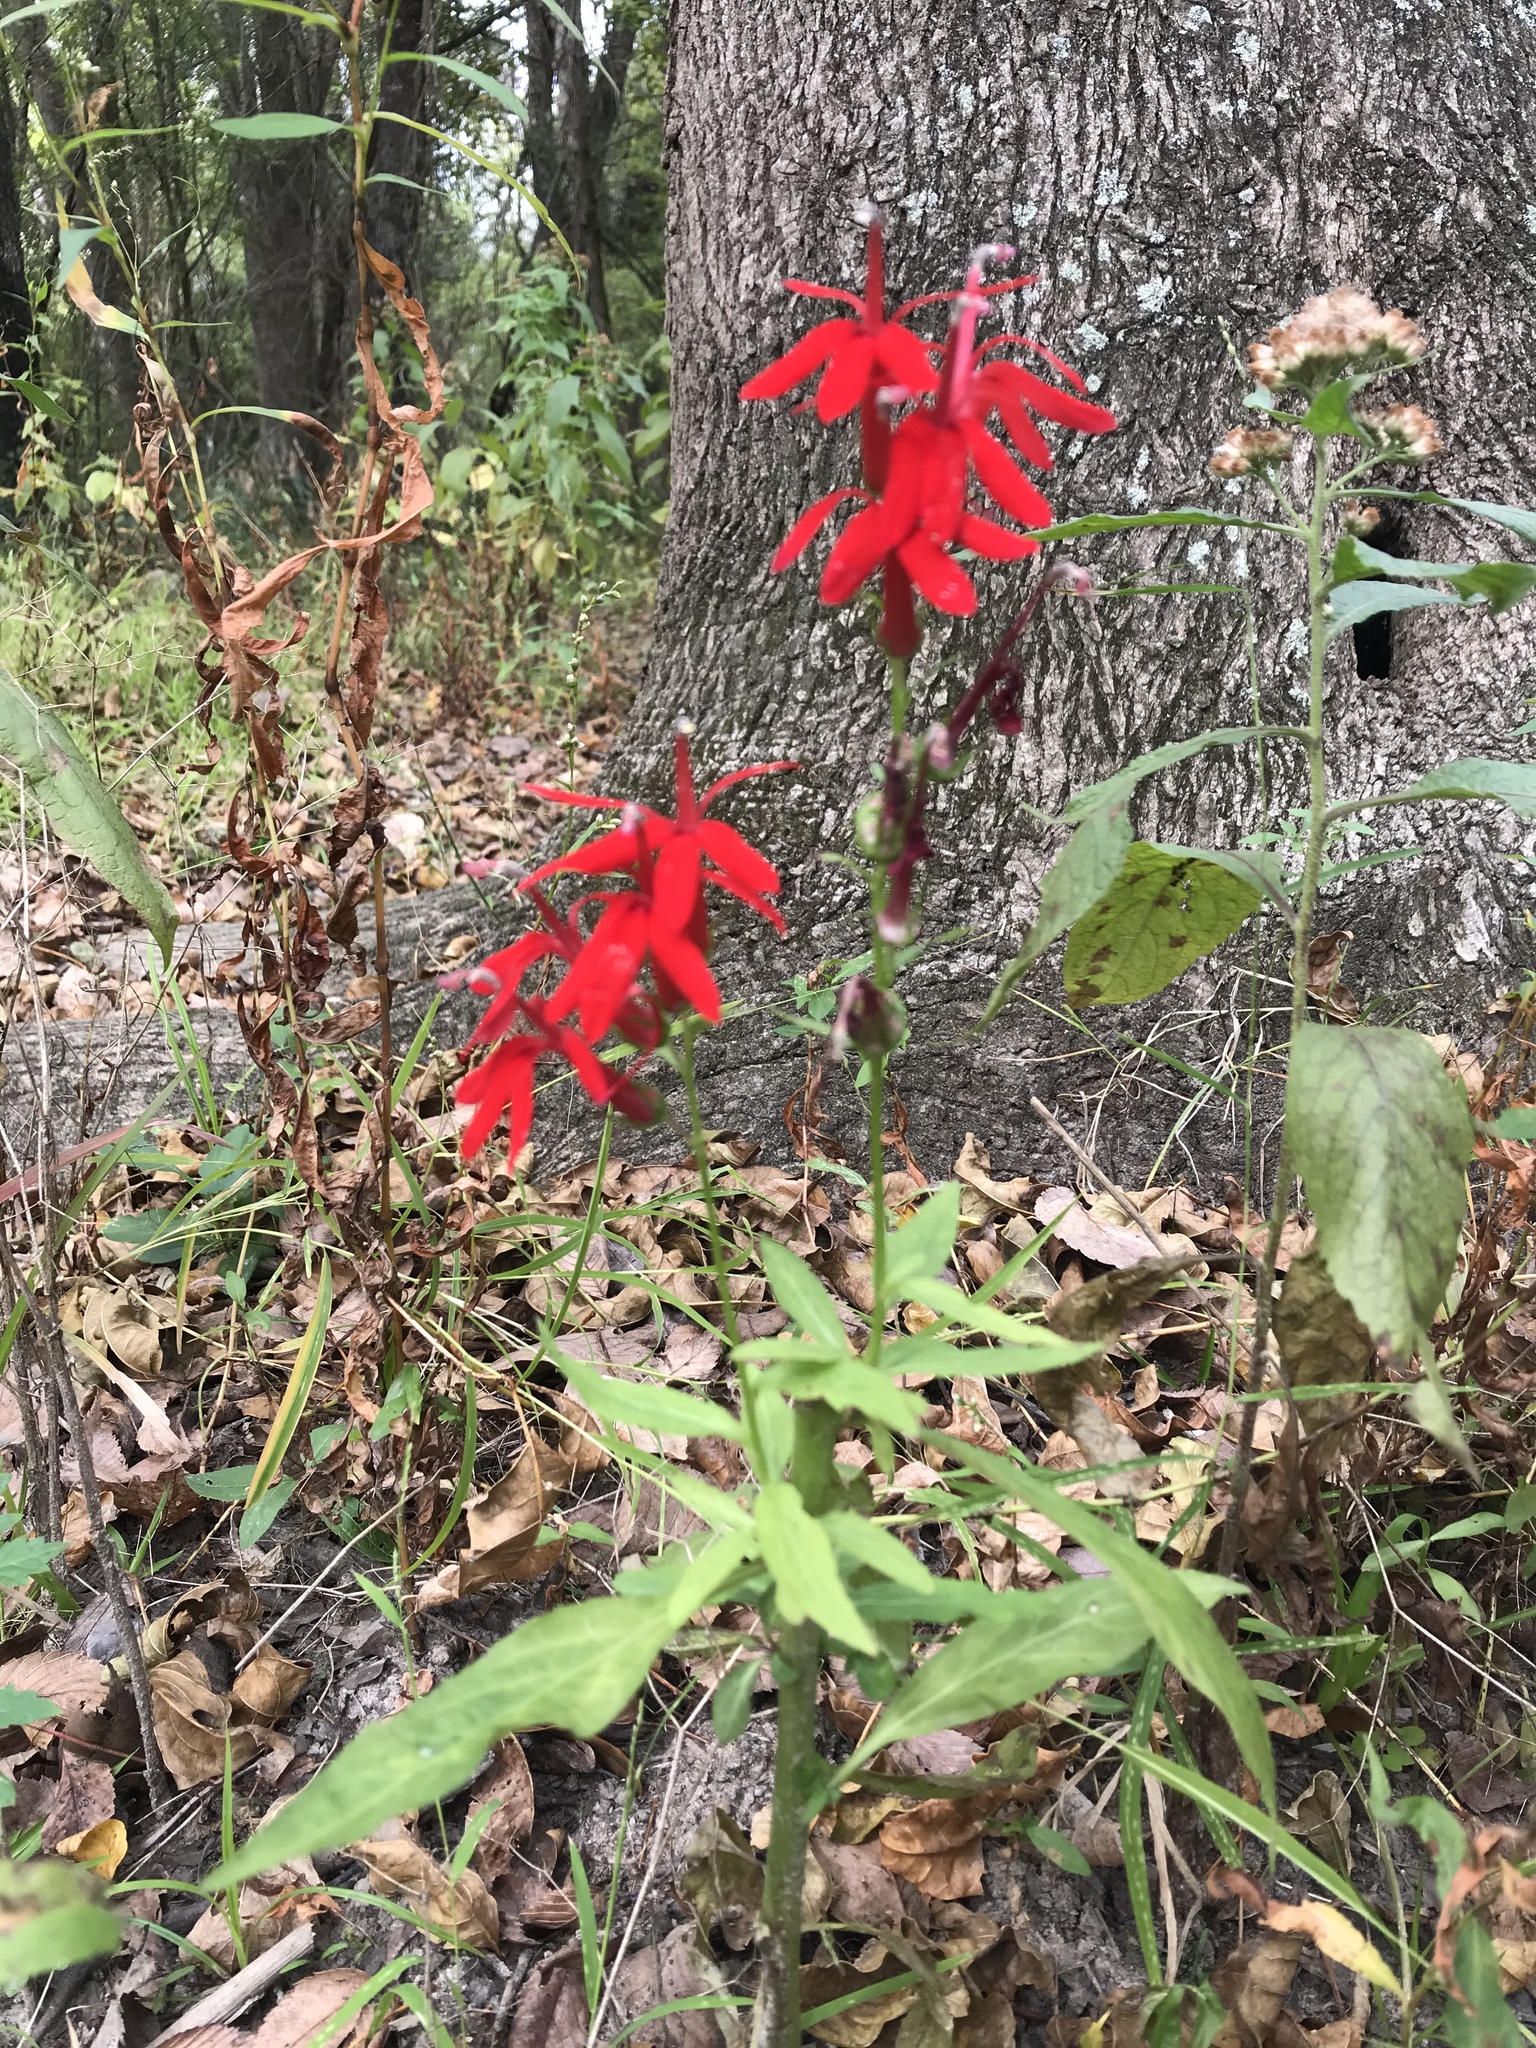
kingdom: Plantae
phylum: Tracheophyta
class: Magnoliopsida
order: Asterales
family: Campanulaceae
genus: Lobelia
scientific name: Lobelia cardinalis
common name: Cardinal flower
